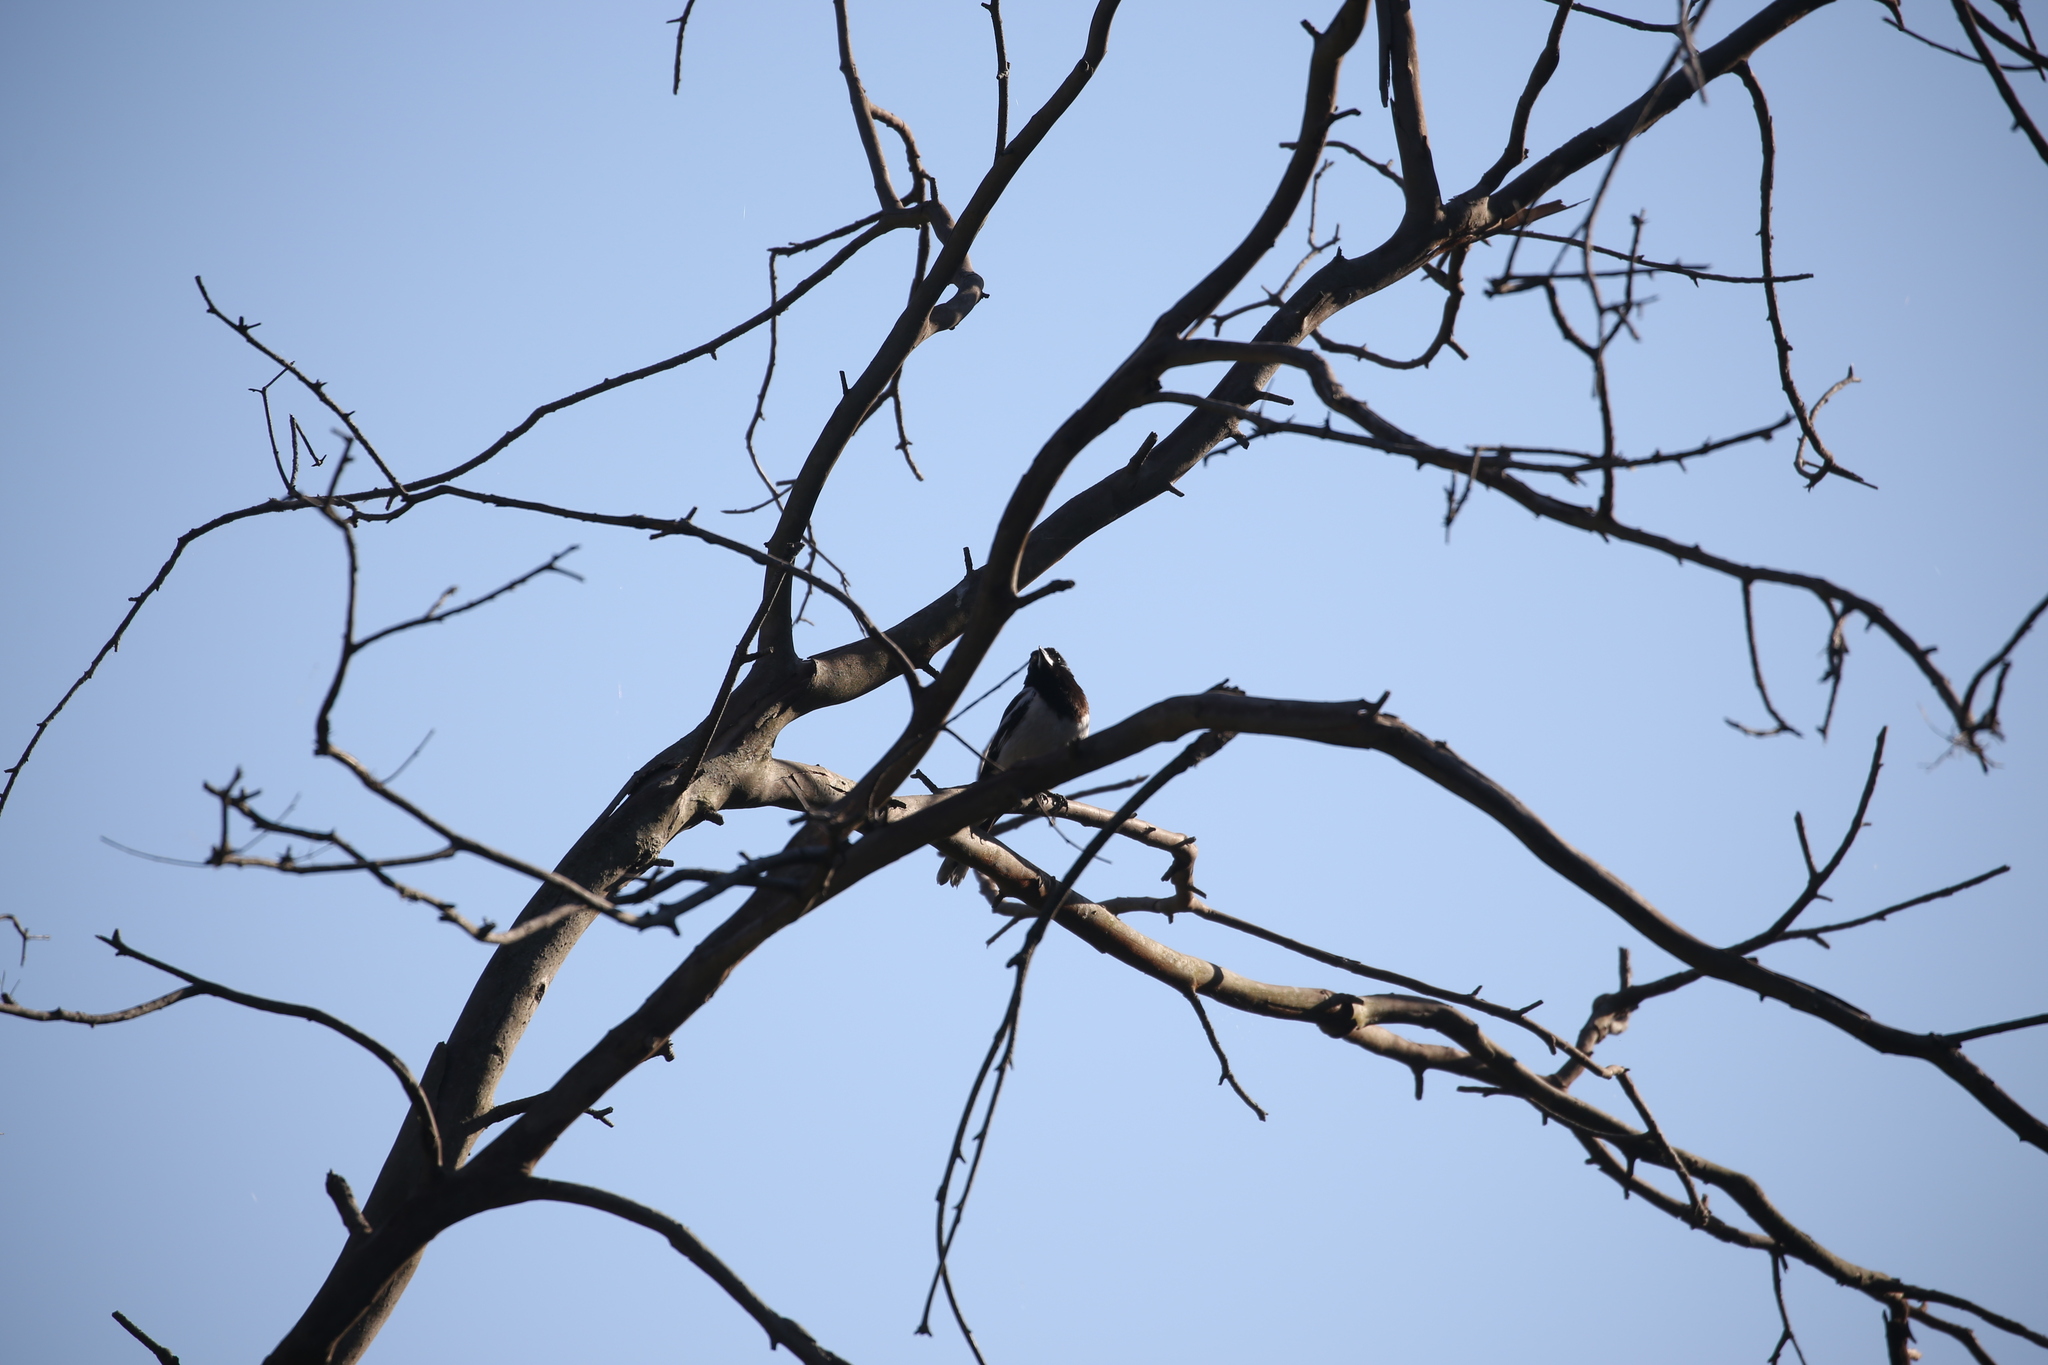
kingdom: Animalia
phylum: Chordata
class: Aves
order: Passeriformes
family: Cracticidae
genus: Cracticus
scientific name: Cracticus nigrogularis
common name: Pied butcherbird
